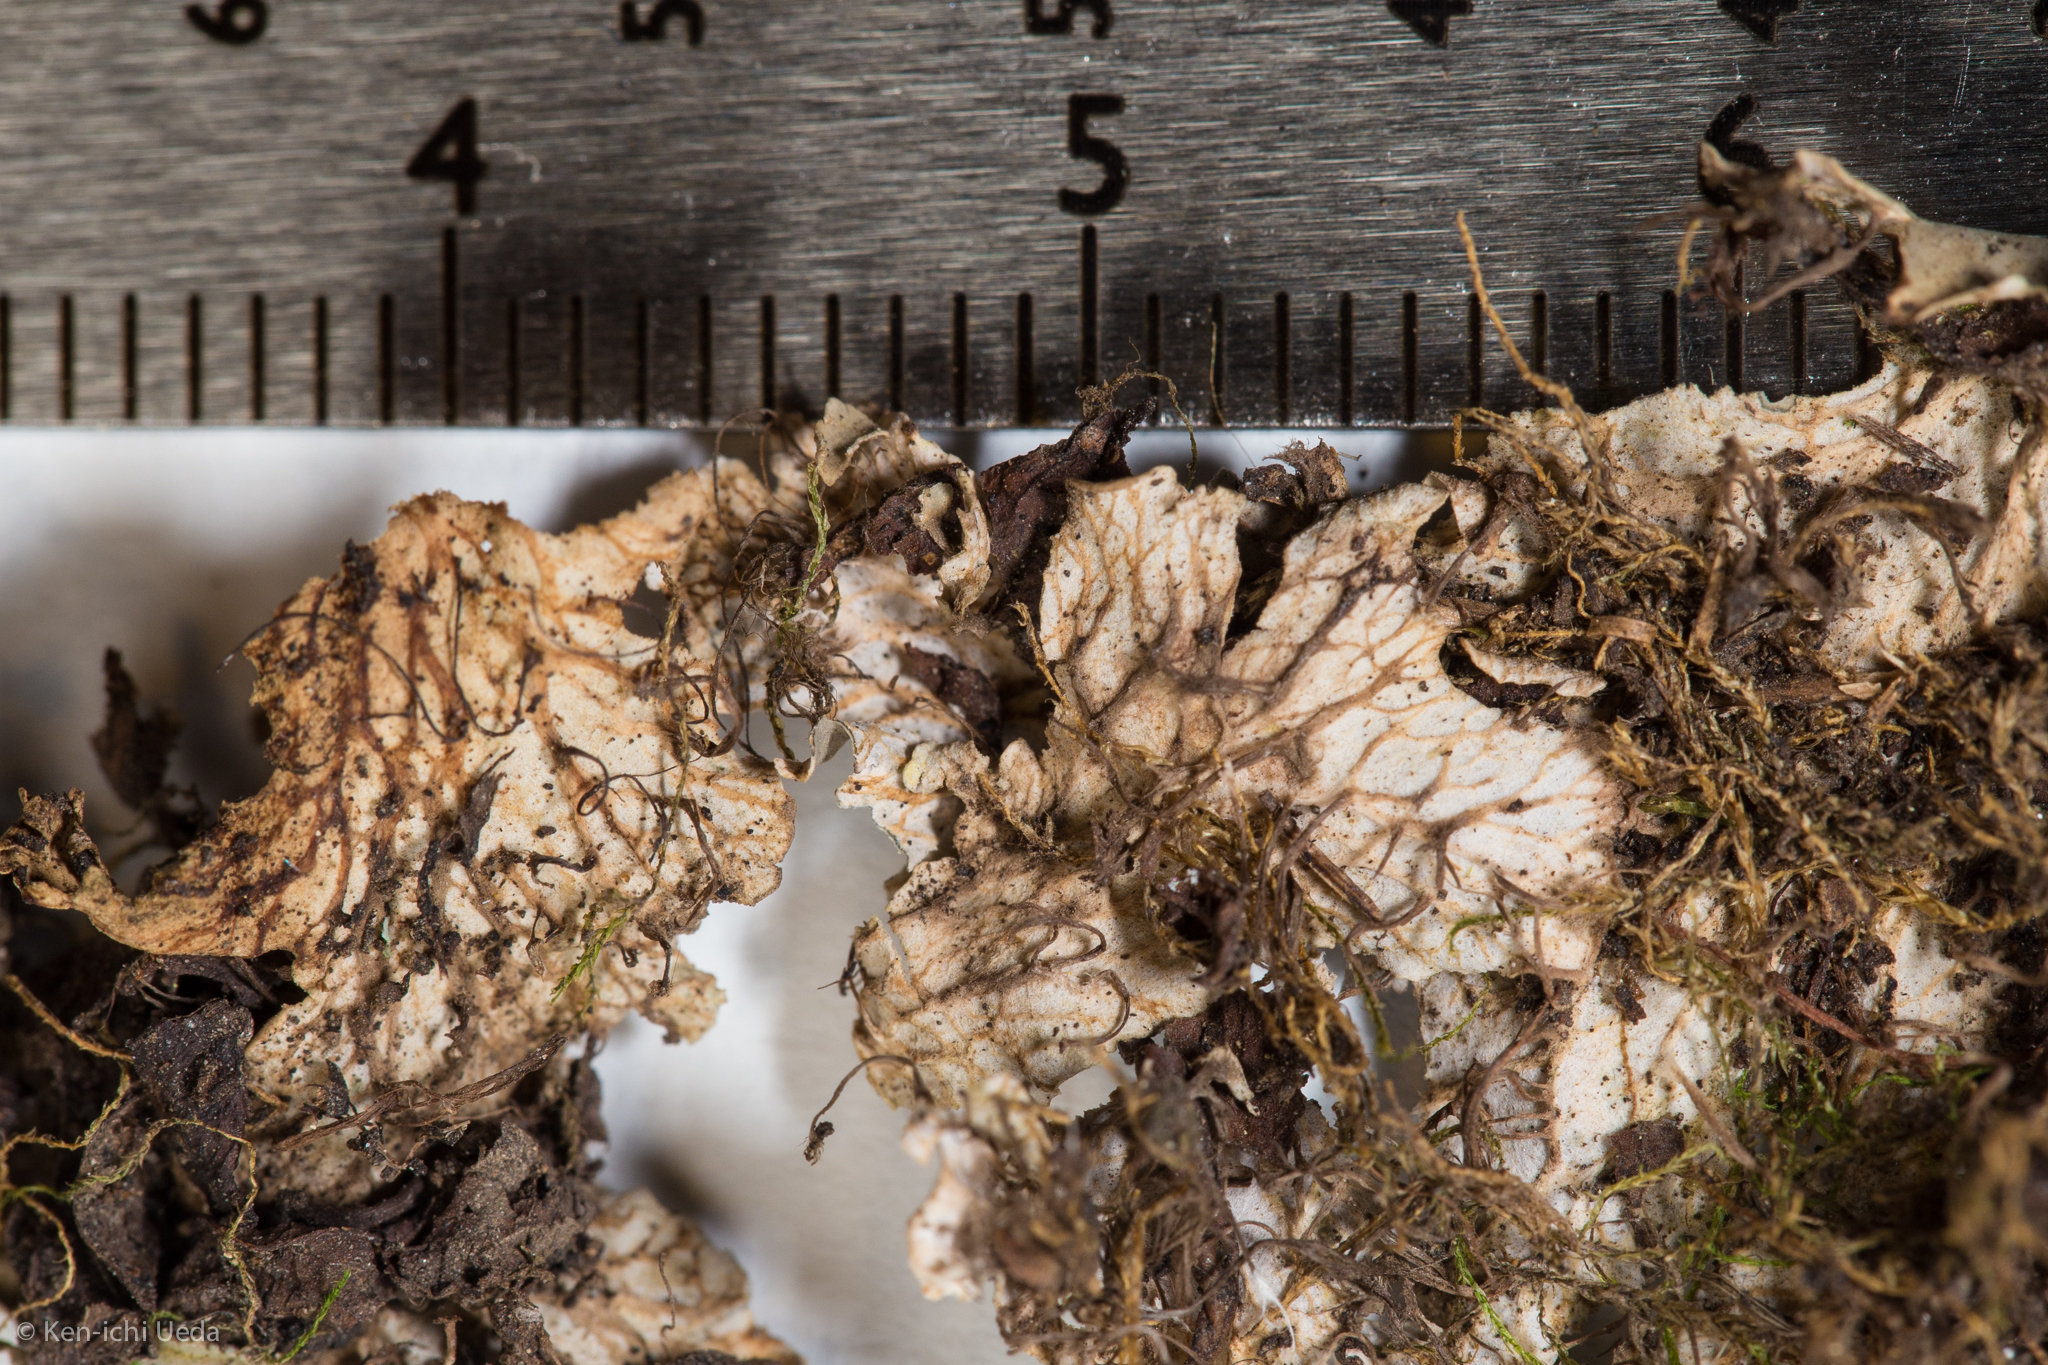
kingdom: Fungi
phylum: Ascomycota
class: Lecanoromycetes
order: Peltigerales
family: Peltigeraceae
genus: Peltigera
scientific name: Peltigera degenii
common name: Frog pelt lichen
